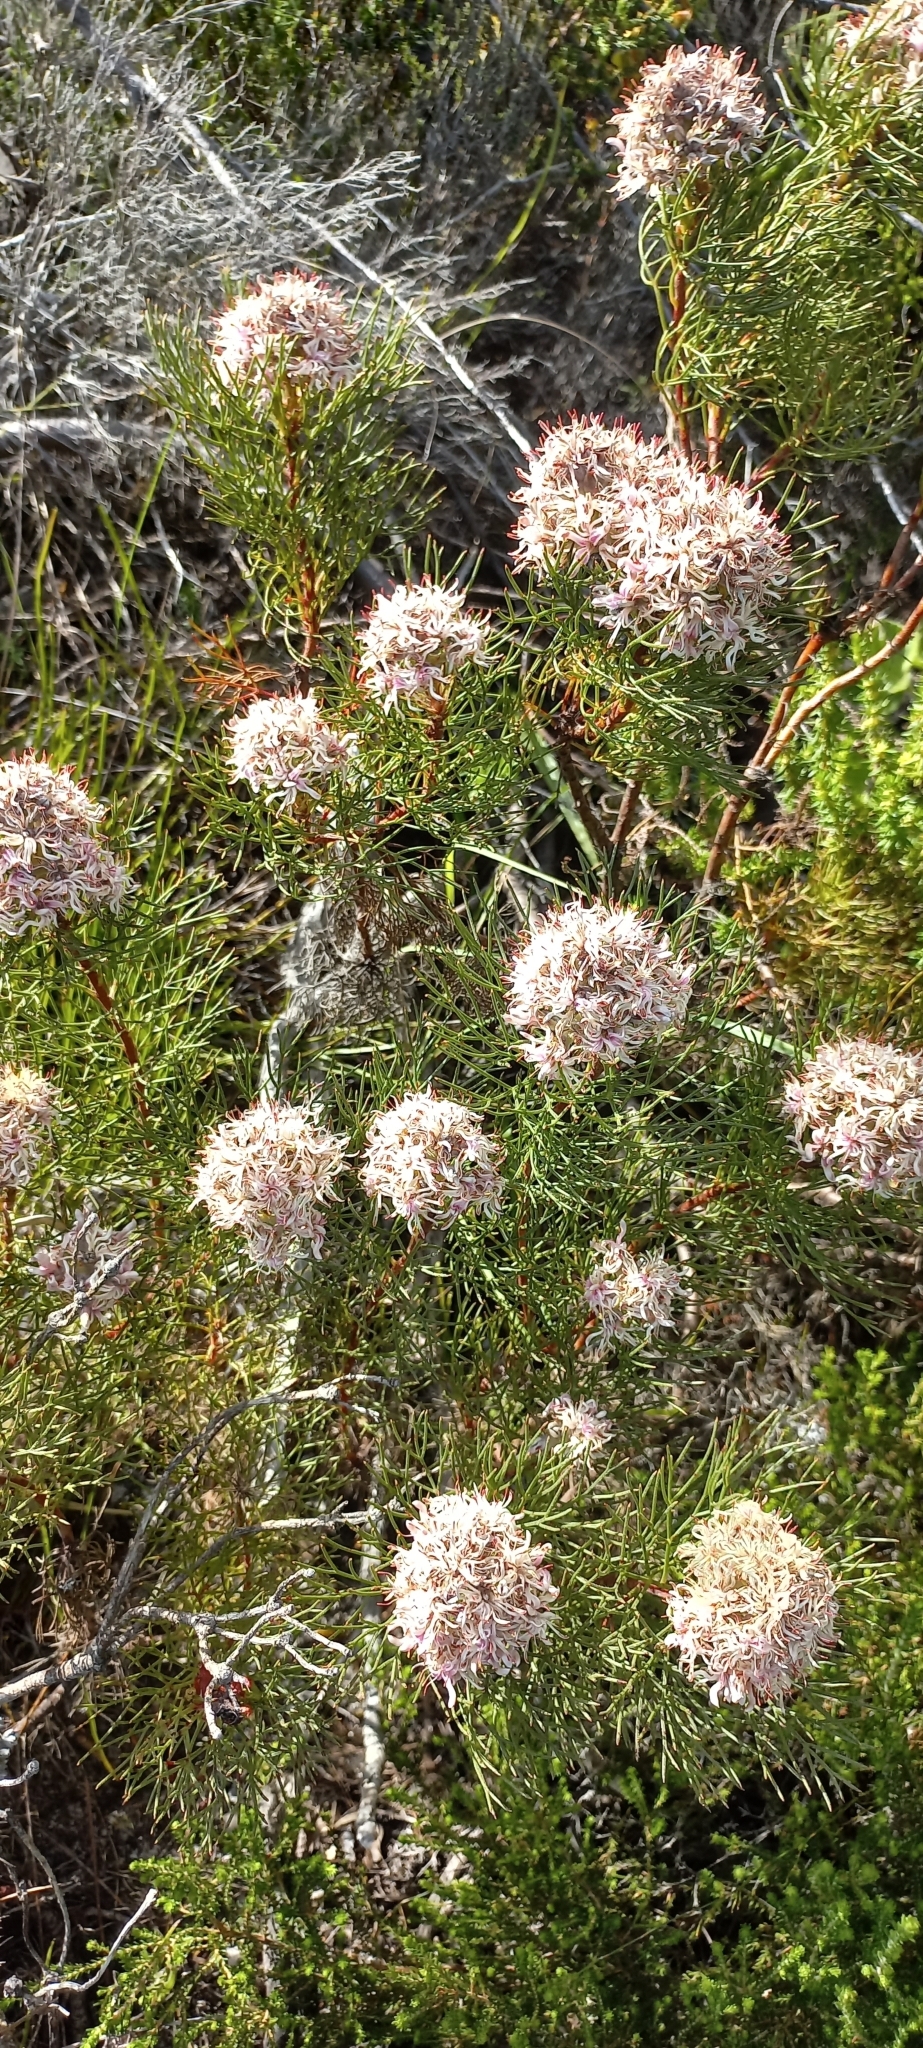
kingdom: Plantae
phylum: Tracheophyta
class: Magnoliopsida
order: Proteales
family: Proteaceae
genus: Serruria
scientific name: Serruria ascendens
